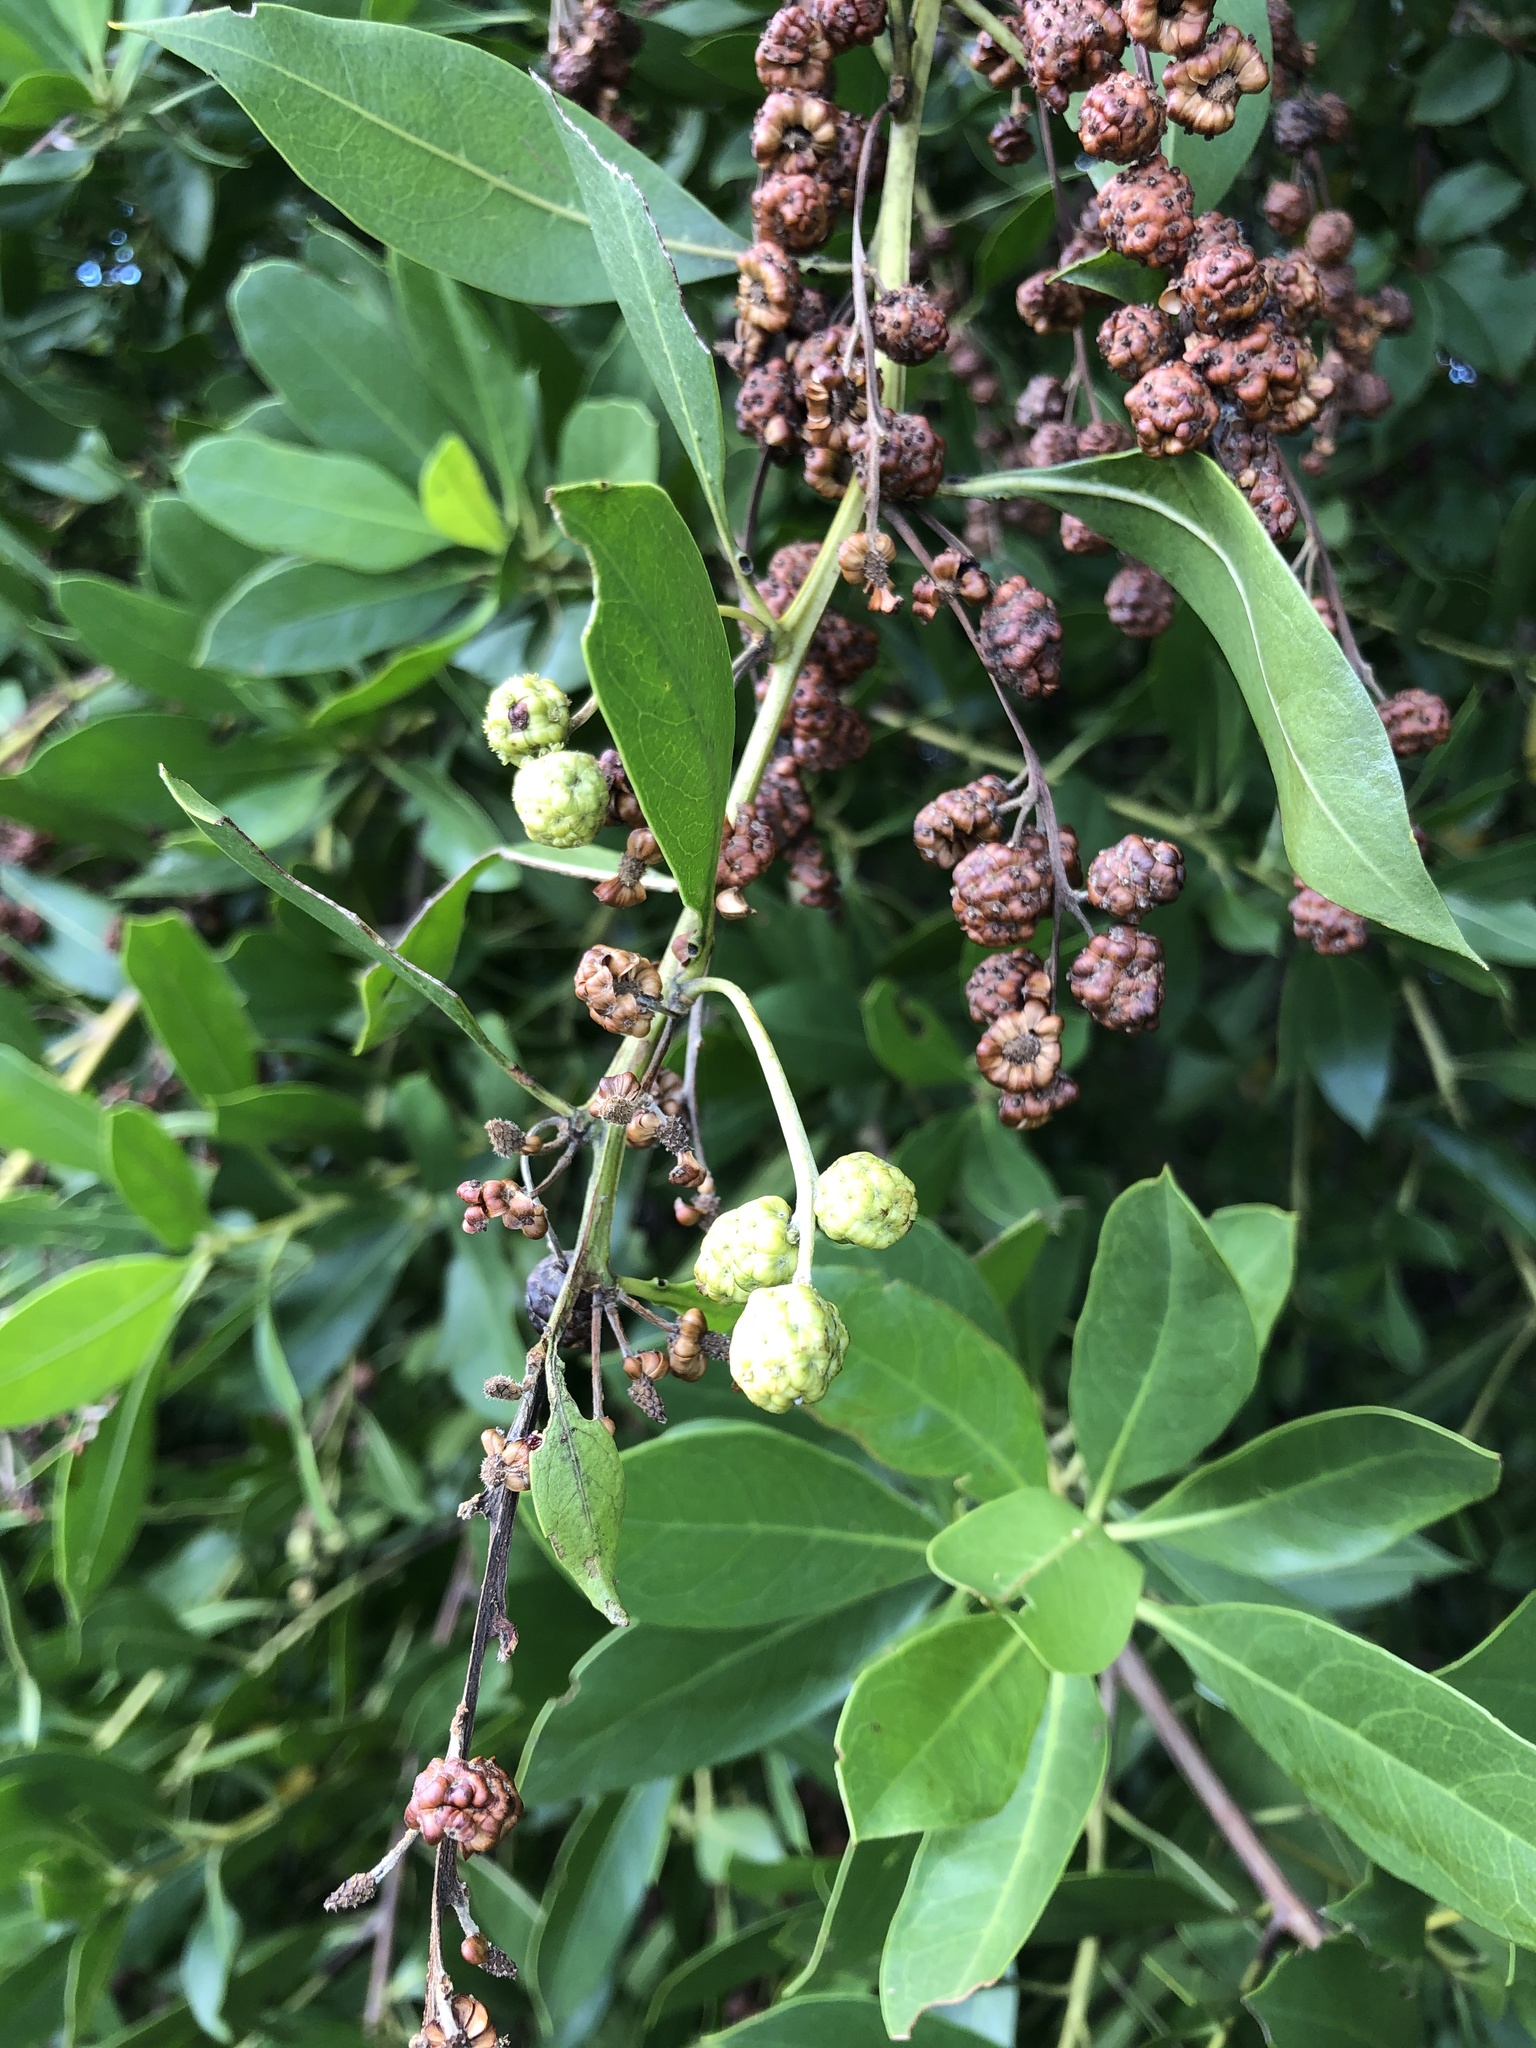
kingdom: Plantae
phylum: Tracheophyta
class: Magnoliopsida
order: Myrtales
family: Combretaceae
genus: Conocarpus
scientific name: Conocarpus erectus
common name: Button mangrove
